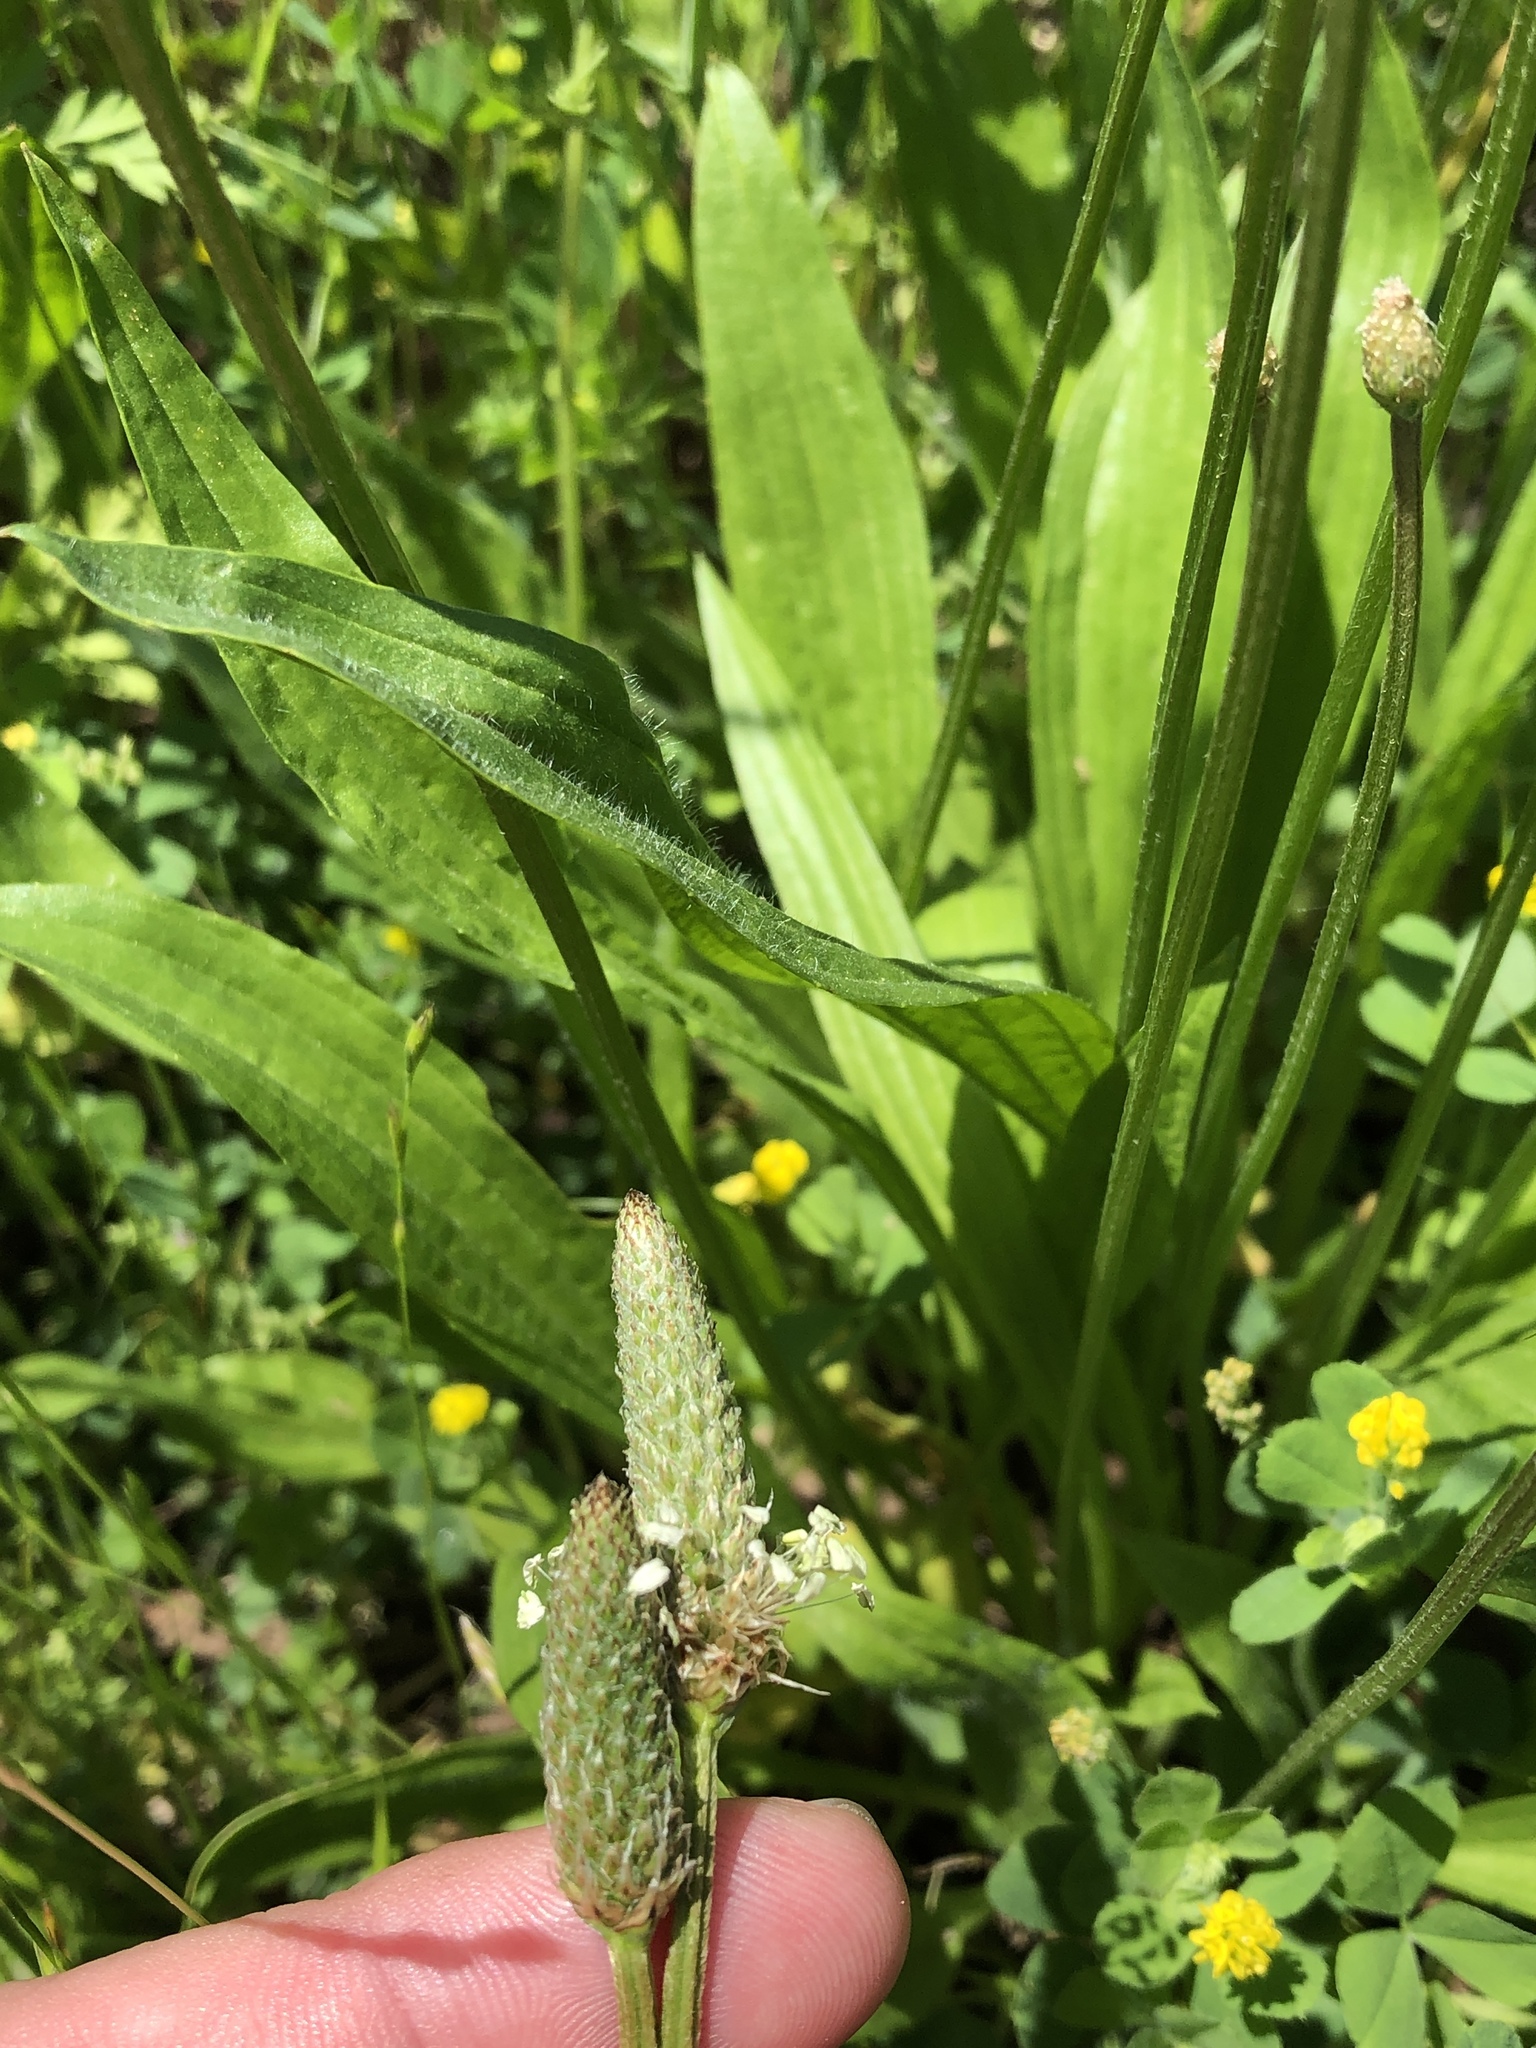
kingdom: Plantae
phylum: Tracheophyta
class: Magnoliopsida
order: Lamiales
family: Plantaginaceae
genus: Plantago
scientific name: Plantago lanceolata
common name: Ribwort plantain
